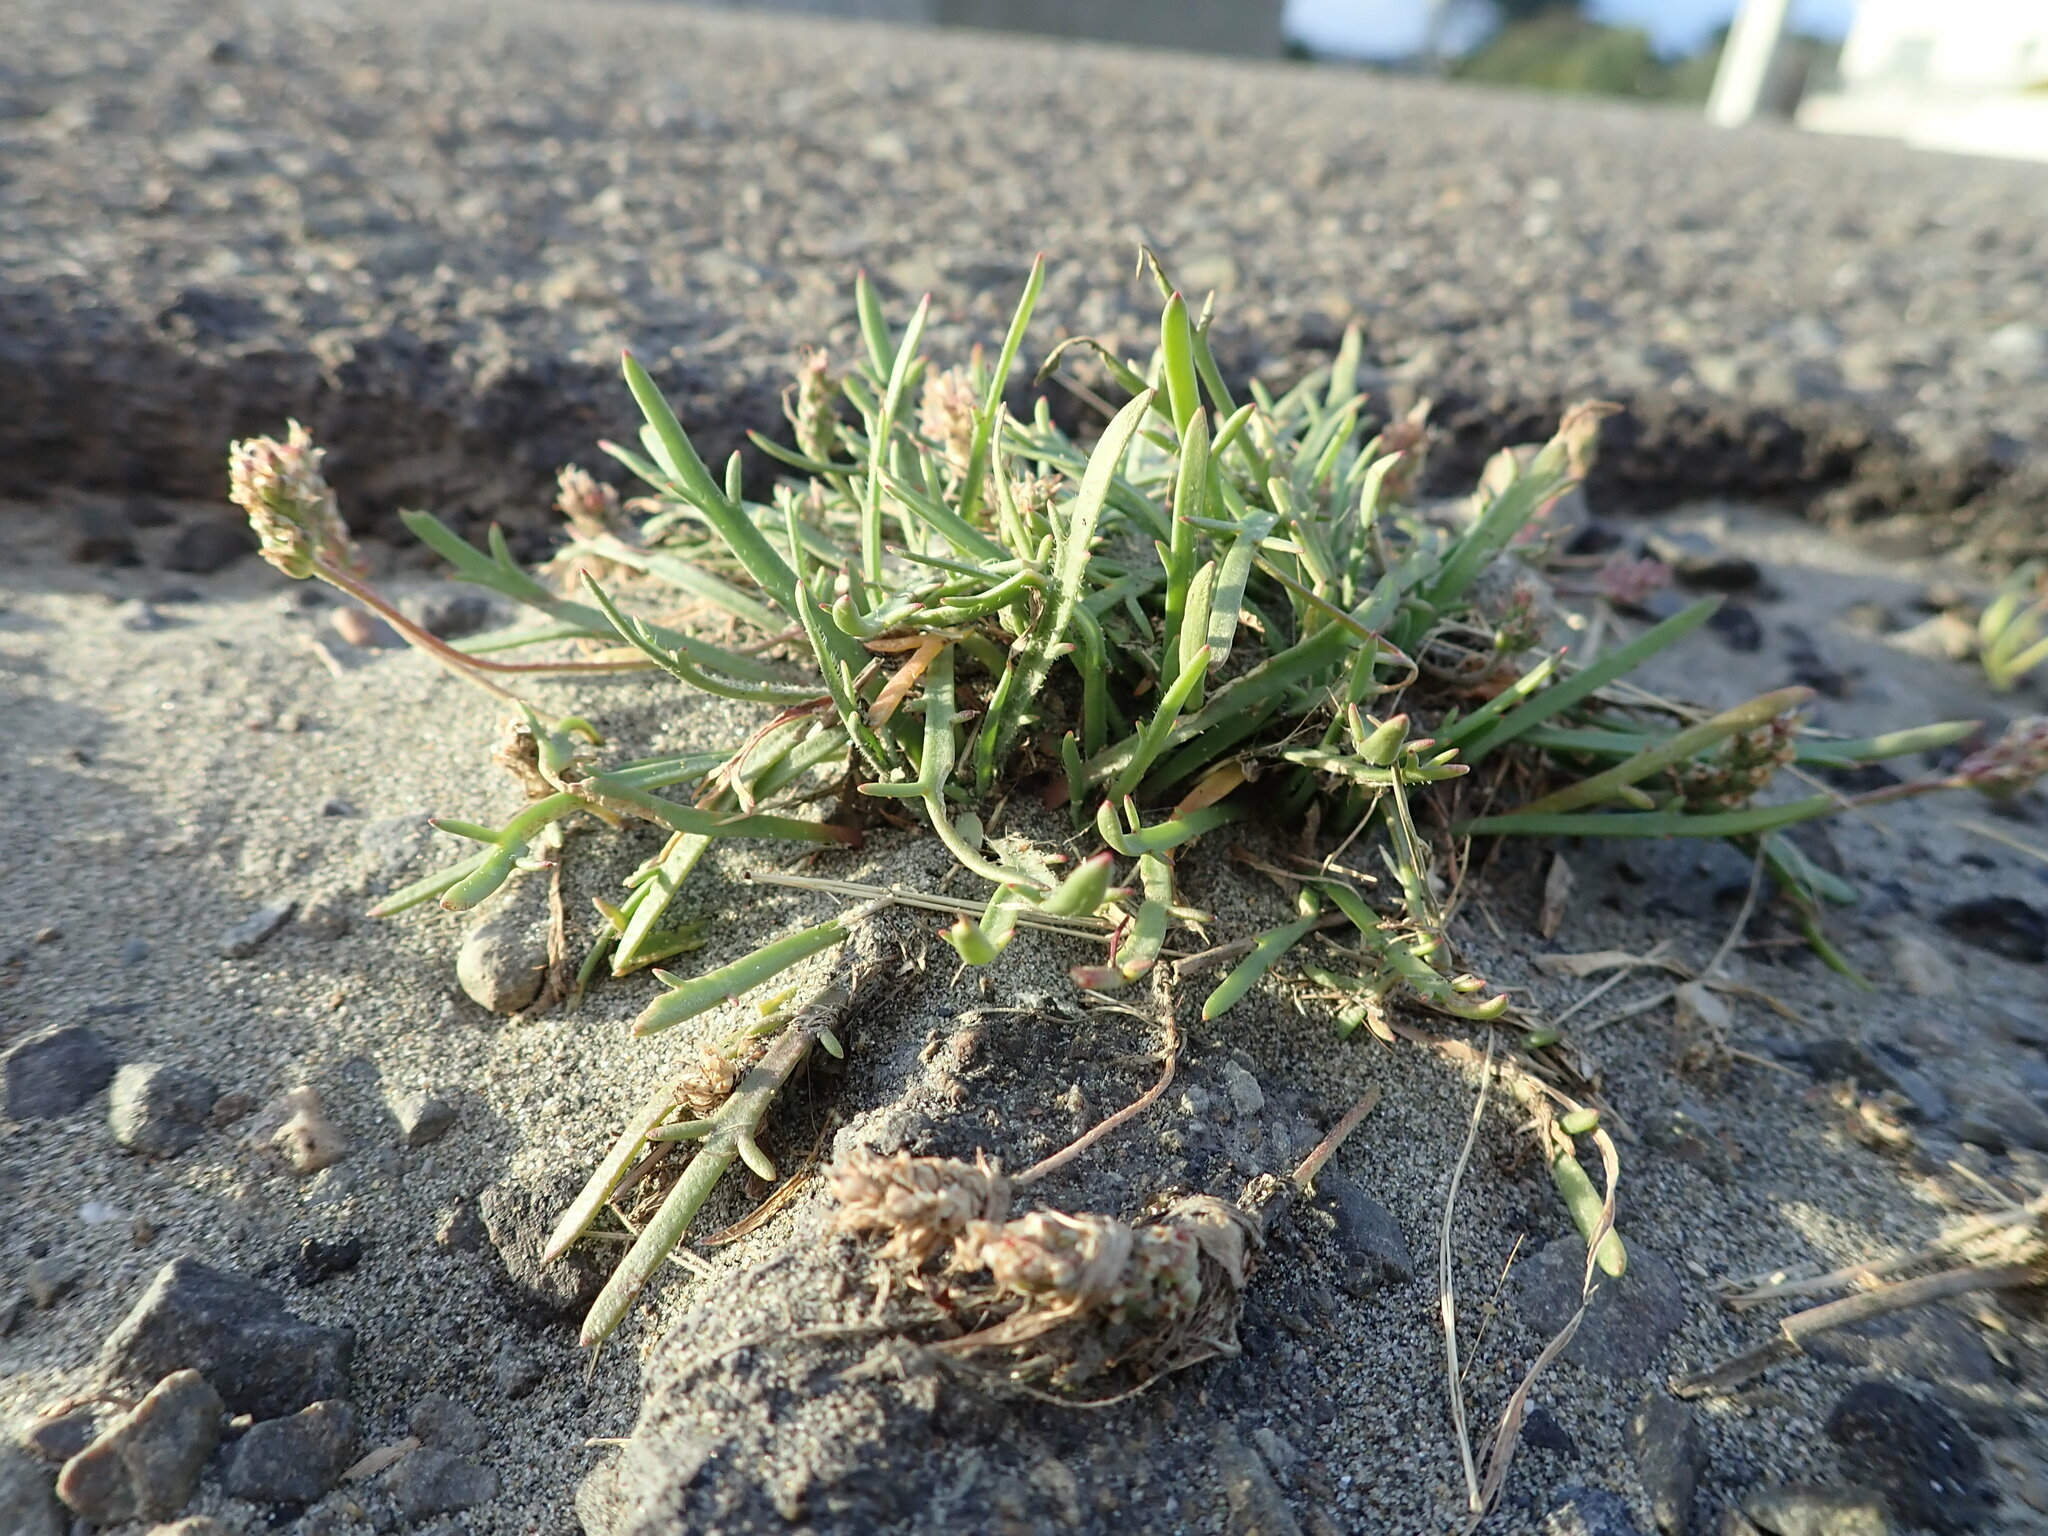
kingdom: Plantae
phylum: Tracheophyta
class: Magnoliopsida
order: Lamiales
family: Plantaginaceae
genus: Plantago
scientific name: Plantago coronopus
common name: Buck's-horn plantain
